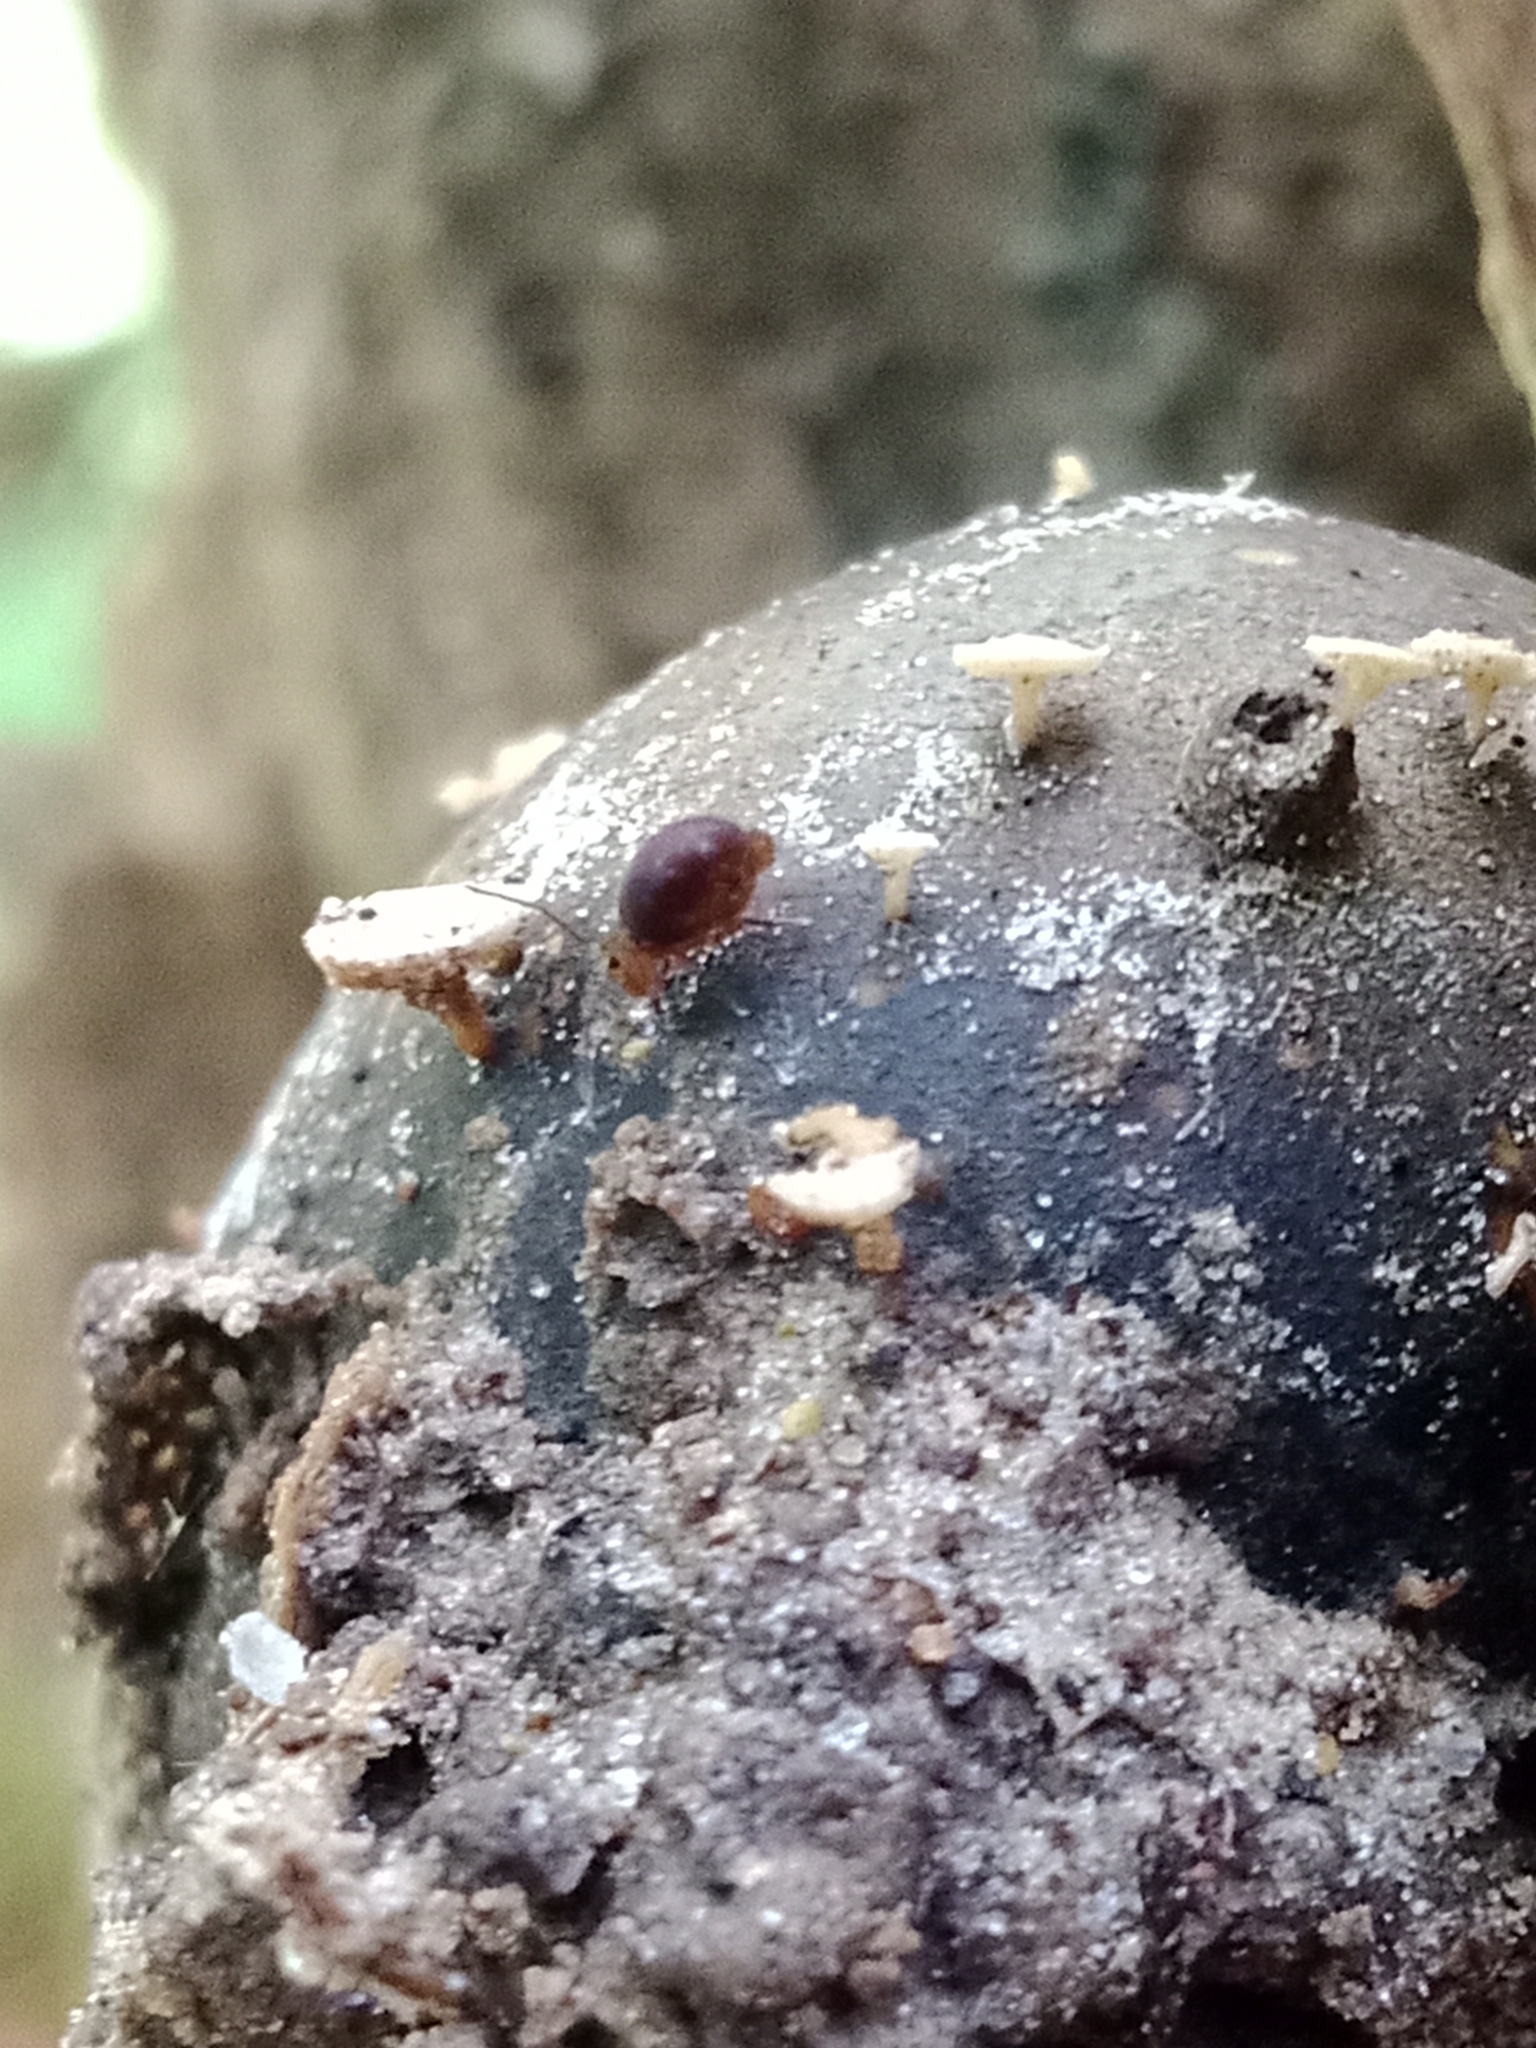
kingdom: Fungi
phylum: Ascomycota
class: Leotiomycetes
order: Helotiales
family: Helotiaceae
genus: Hymenoscyphus
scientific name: Hymenoscyphus fructigenus
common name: Nut disco
